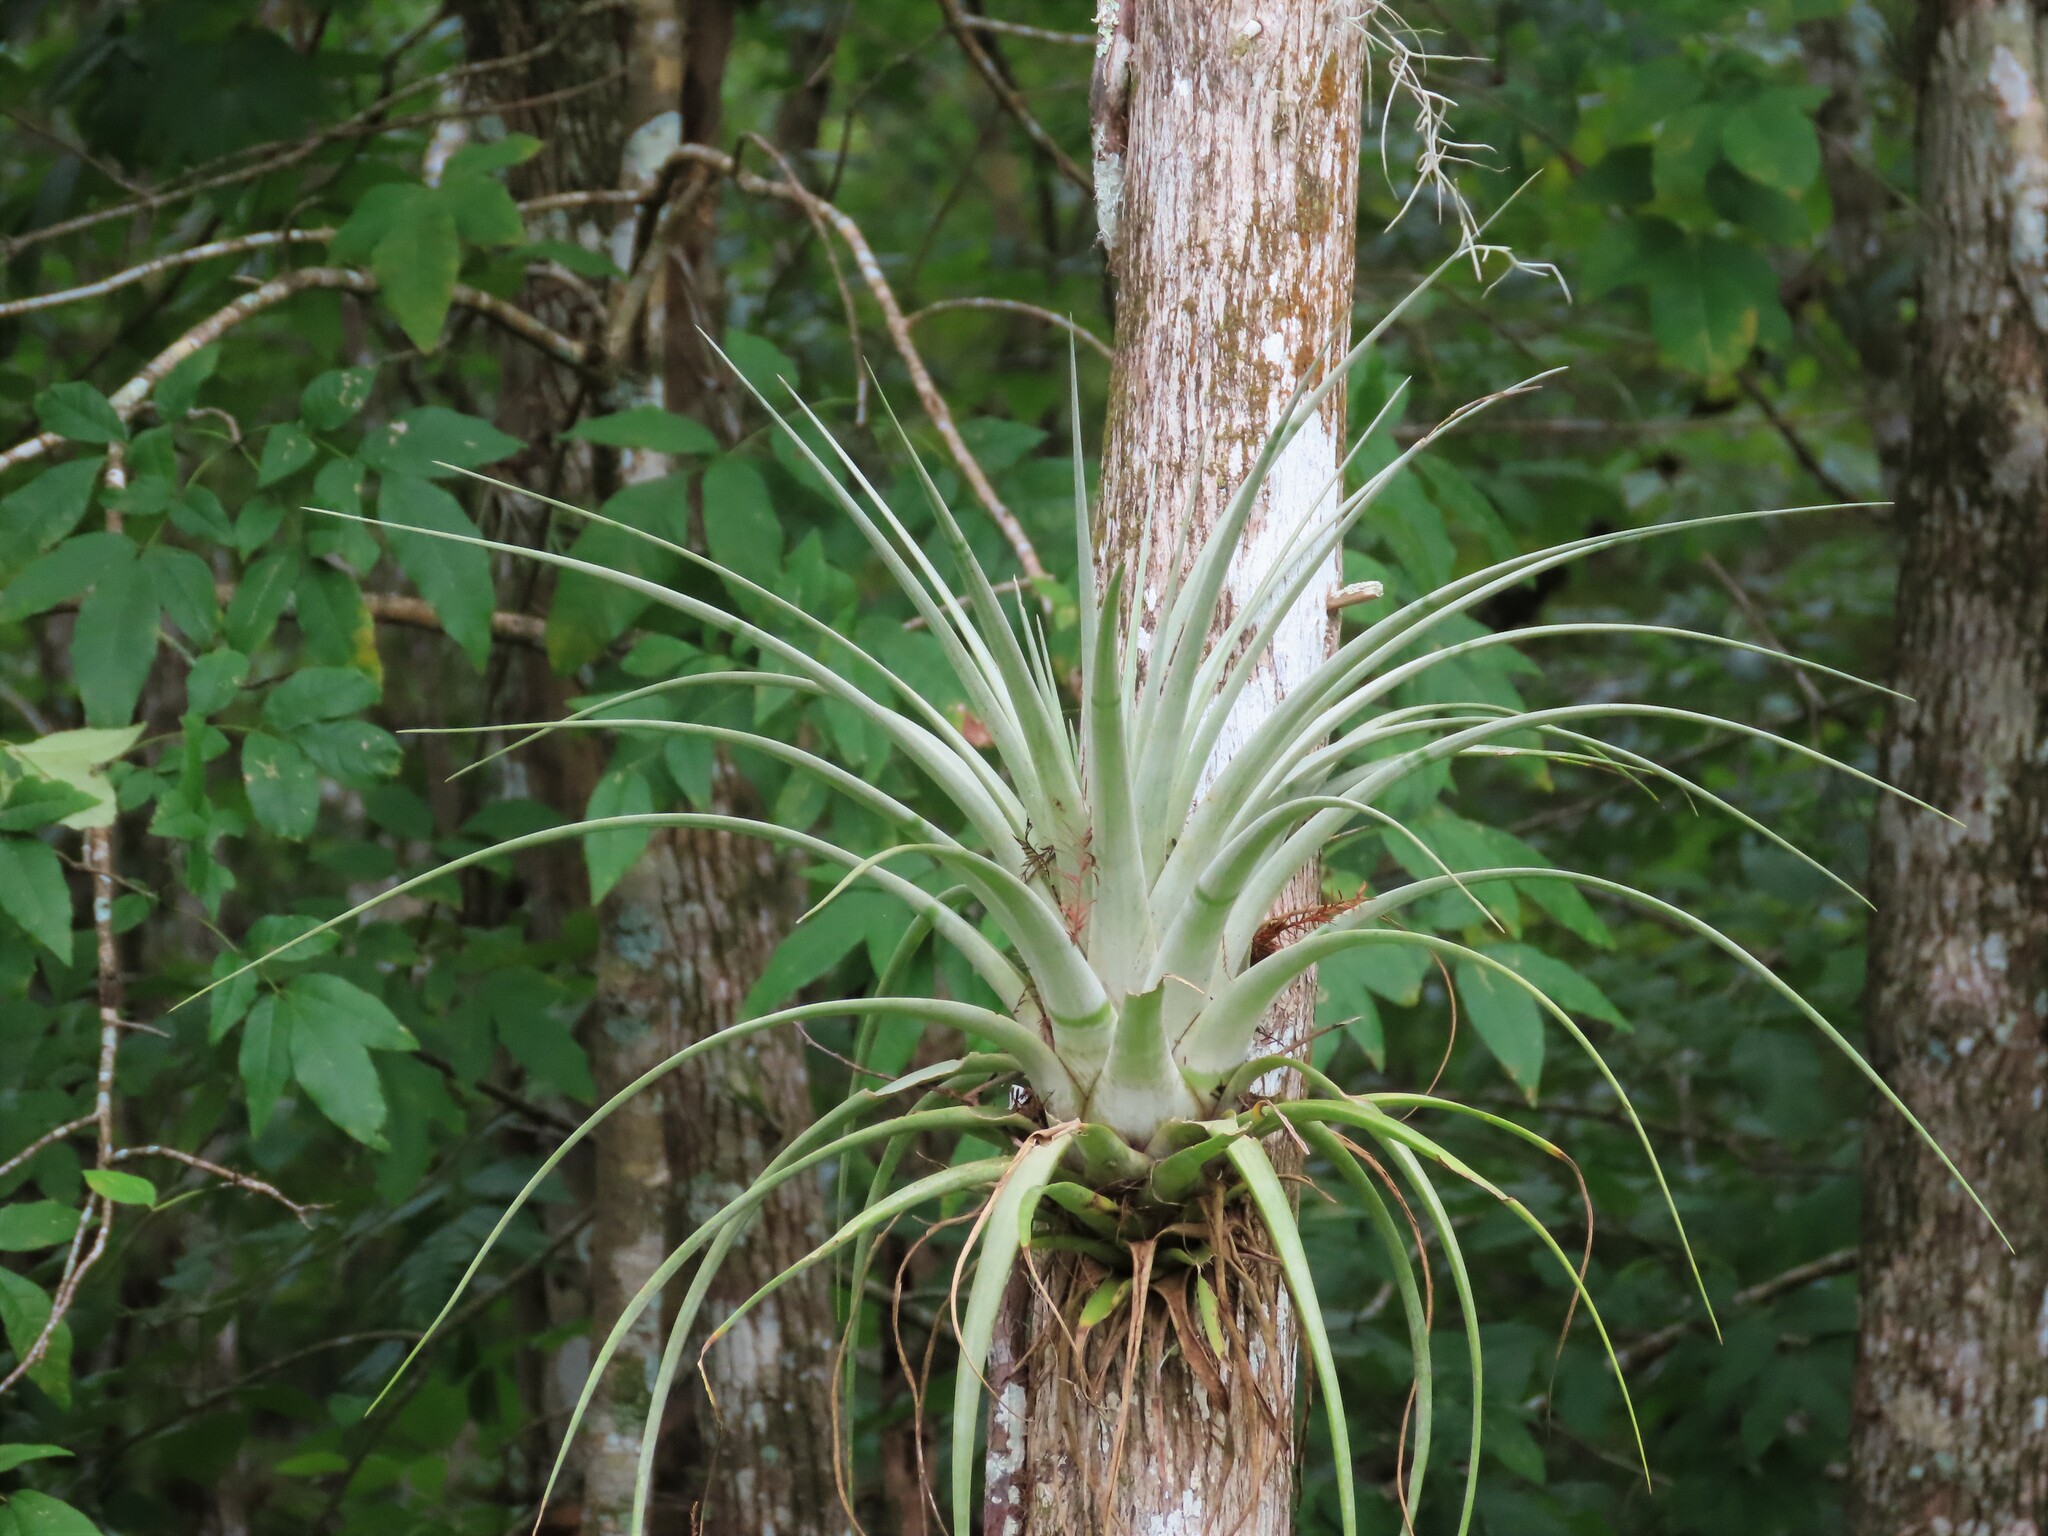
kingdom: Plantae
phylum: Tracheophyta
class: Liliopsida
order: Poales
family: Bromeliaceae
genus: Tillandsia
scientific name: Tillandsia utriculata
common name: Wild pine
